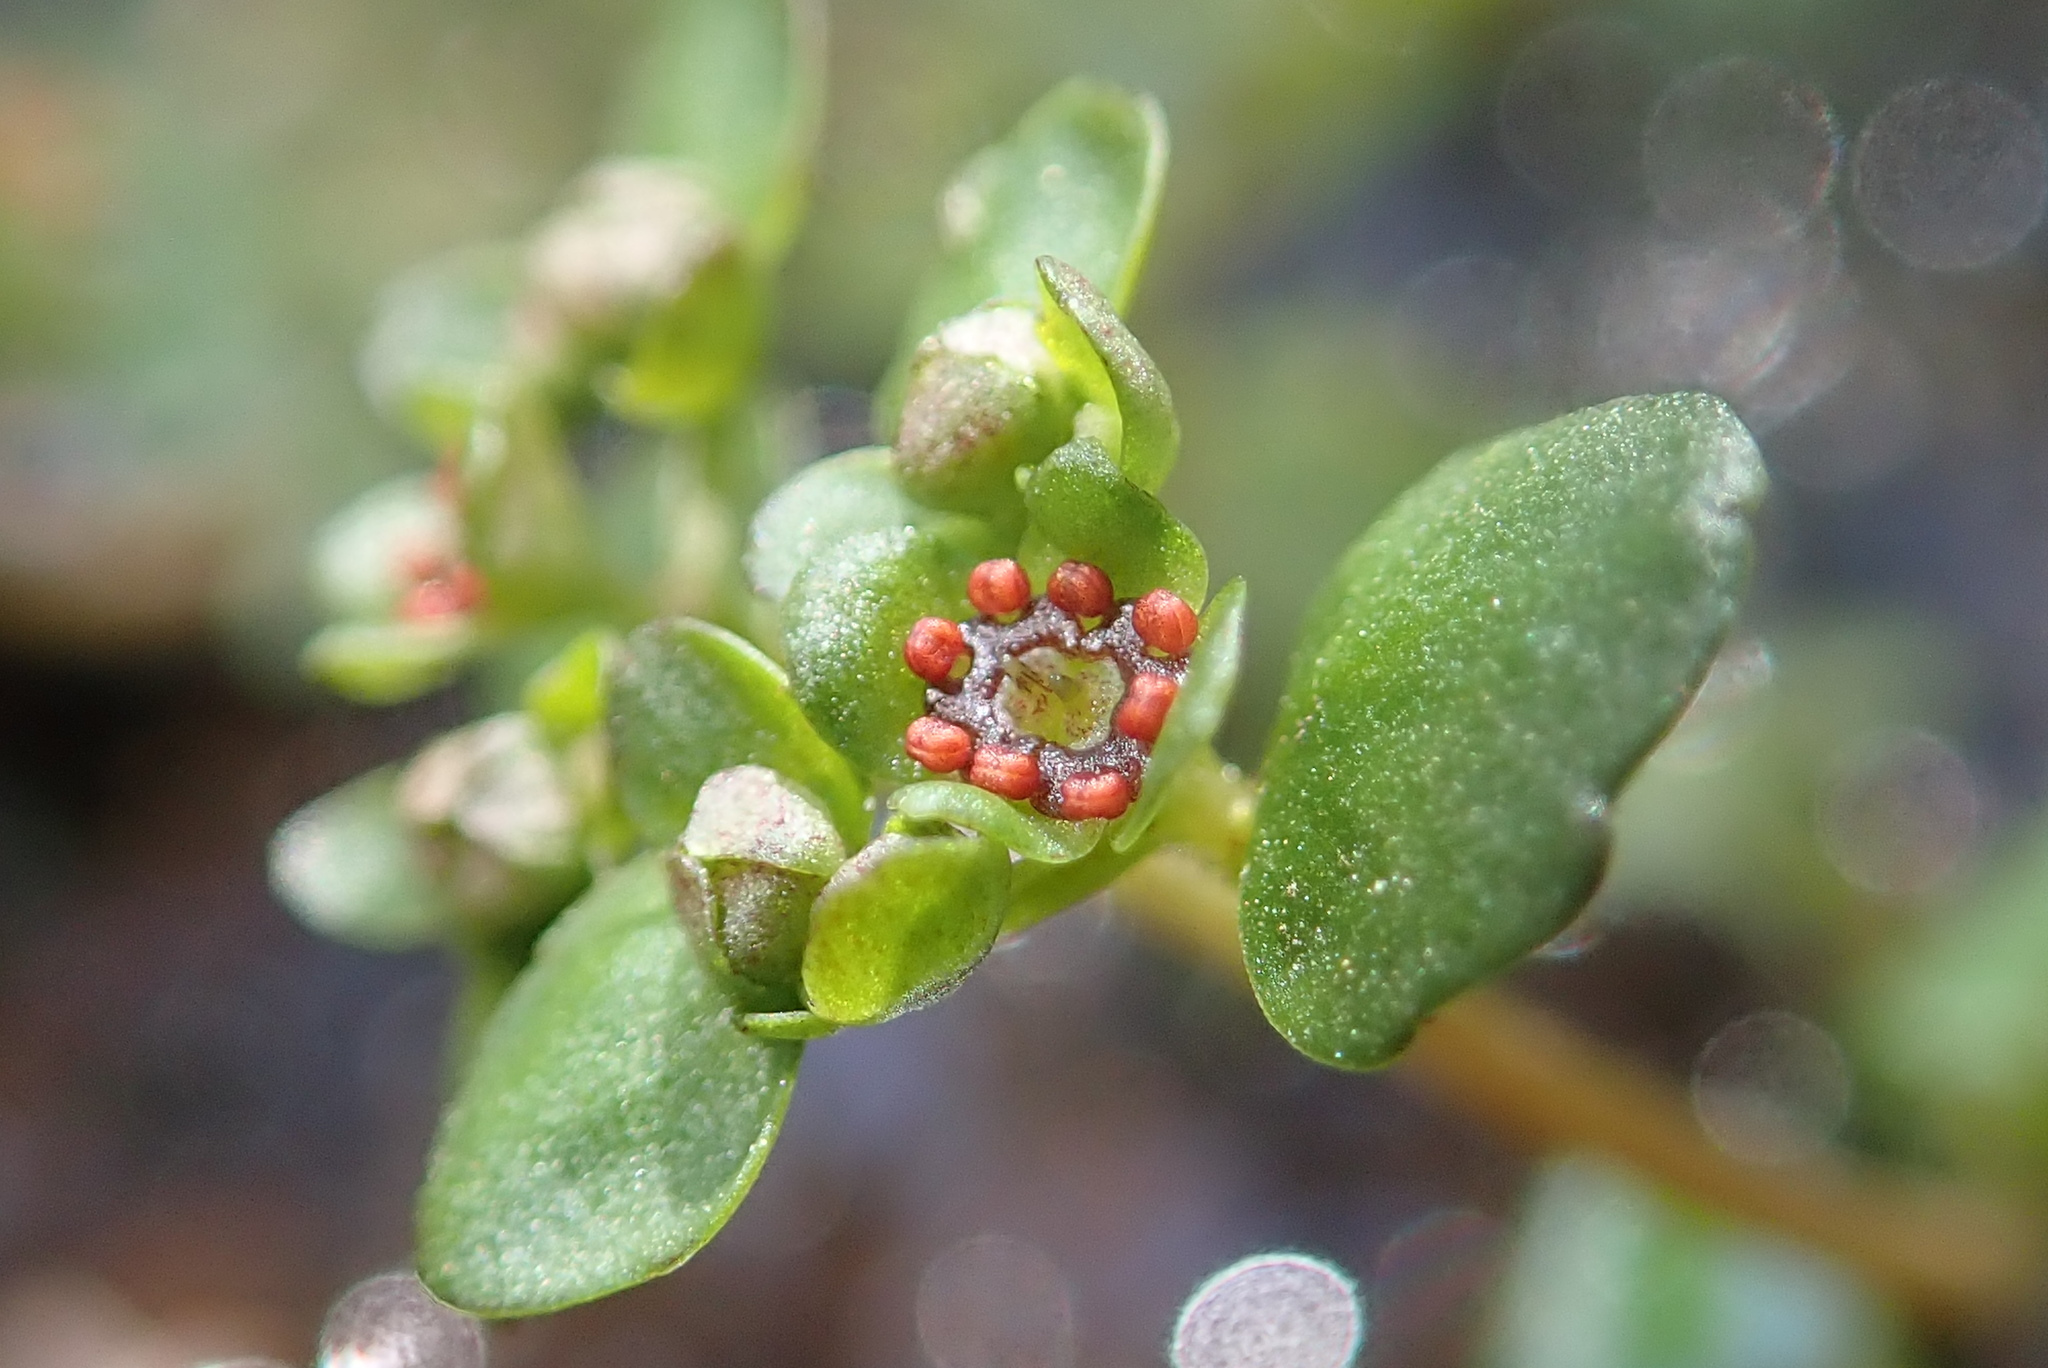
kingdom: Plantae
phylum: Tracheophyta
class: Magnoliopsida
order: Saxifragales
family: Saxifragaceae
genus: Chrysosplenium
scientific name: Chrysosplenium americanum
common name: American golden-saxifrage
